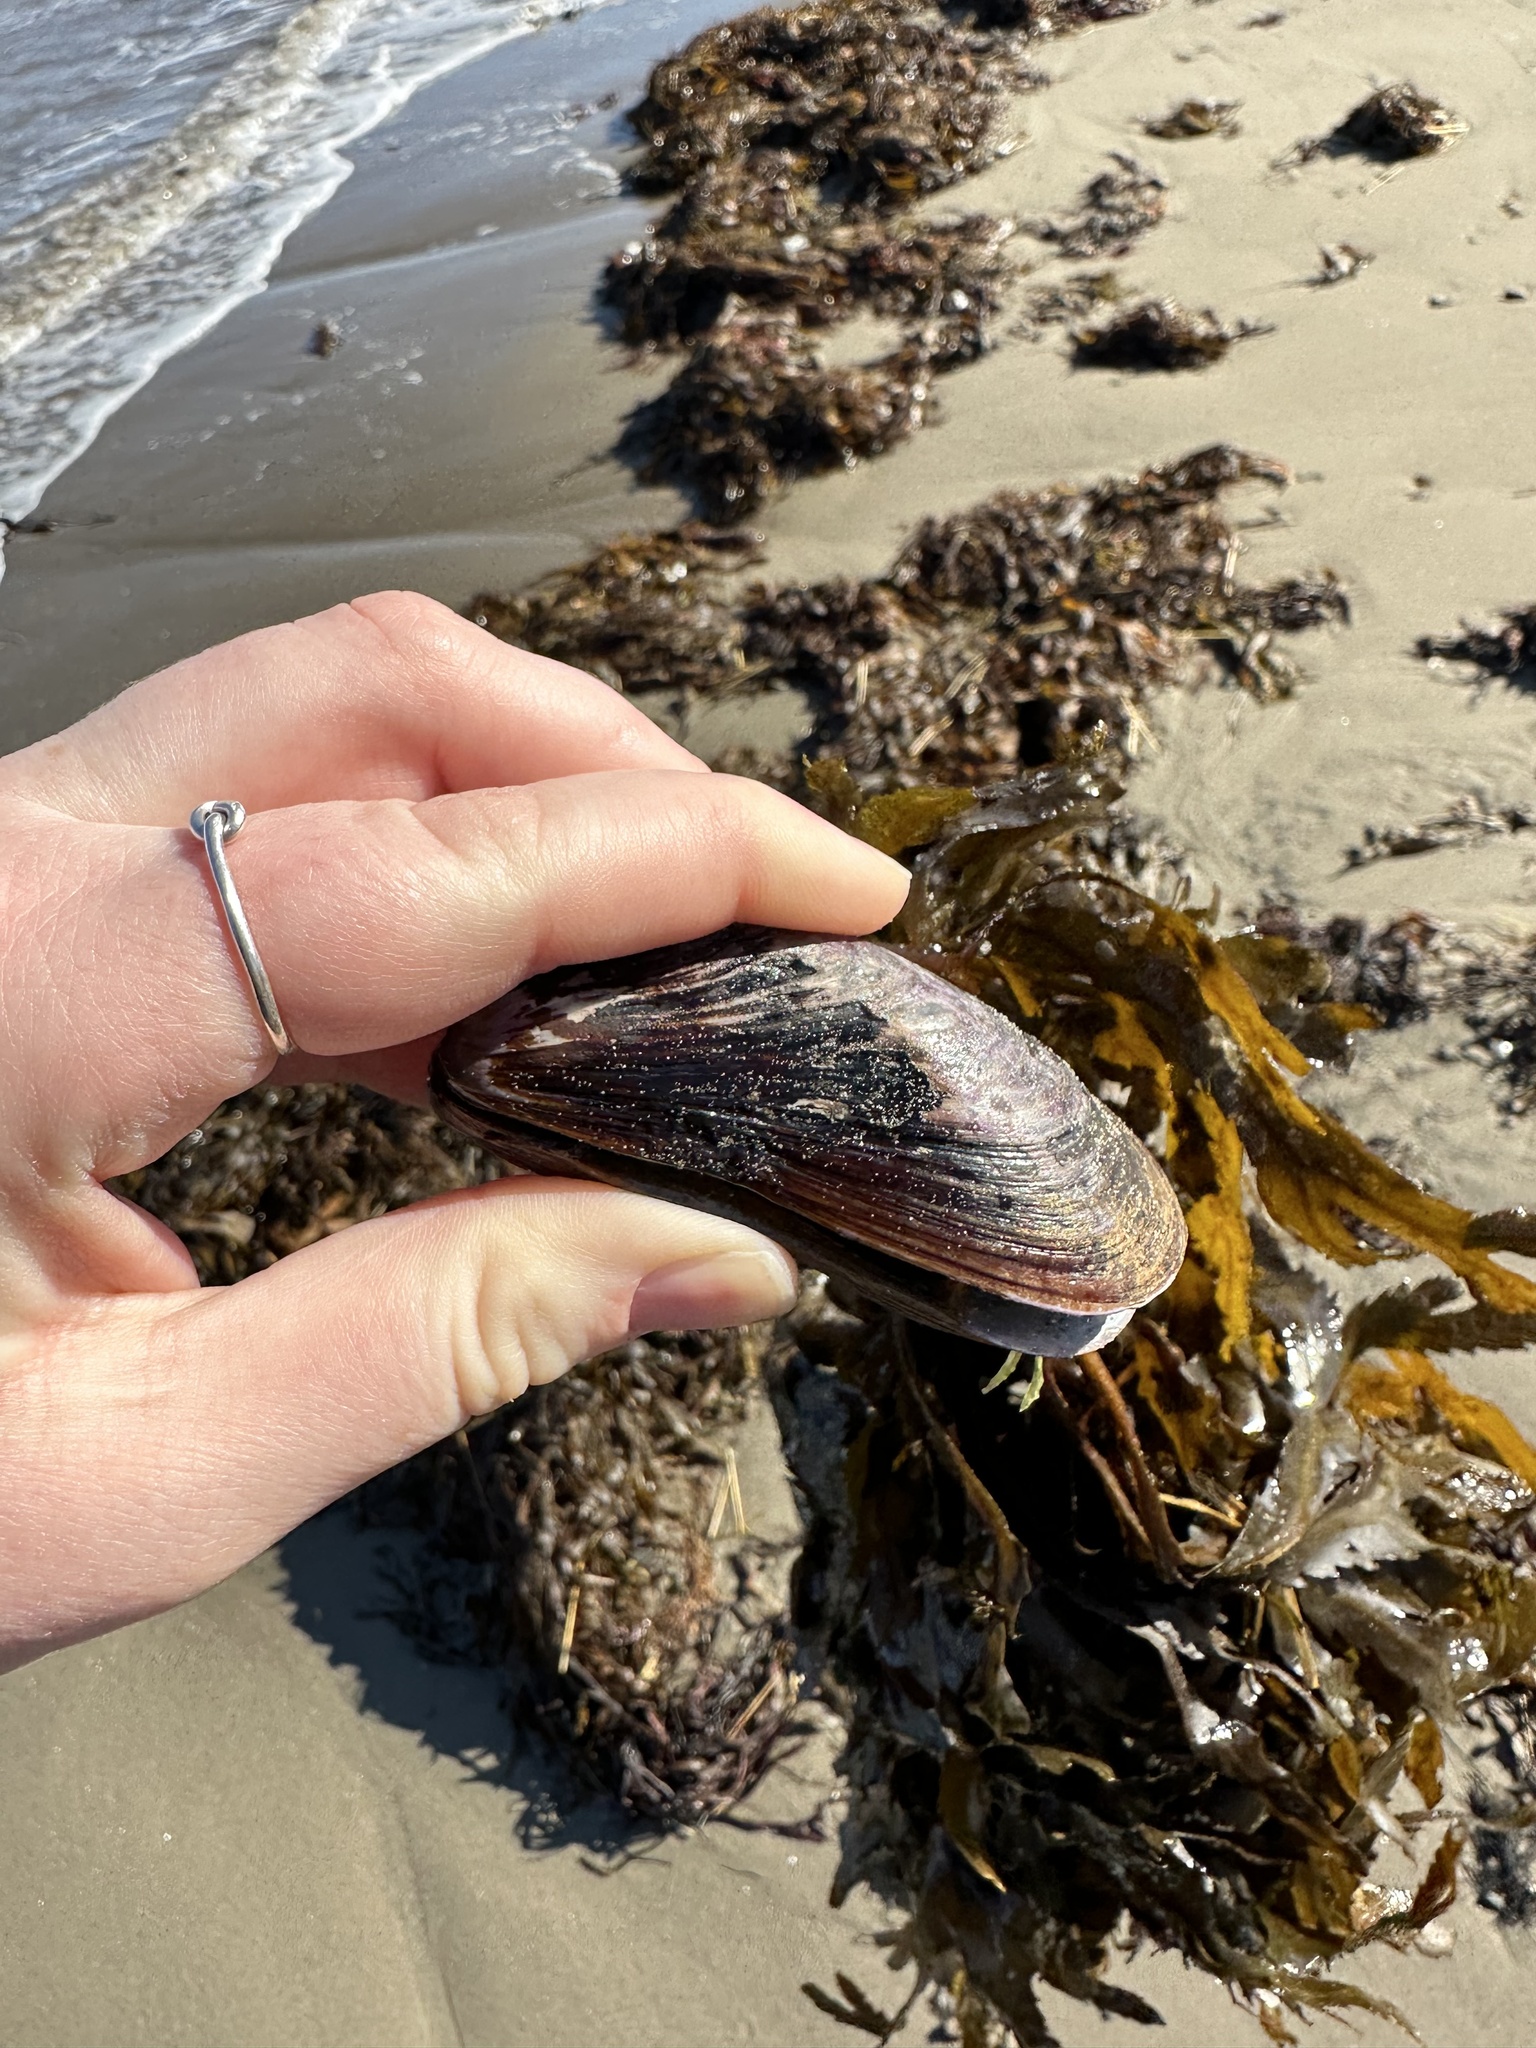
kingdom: Animalia
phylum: Mollusca
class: Bivalvia
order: Mytilida
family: Mytilidae
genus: Modiolus
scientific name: Modiolus modiolus
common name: Horse-mussel
